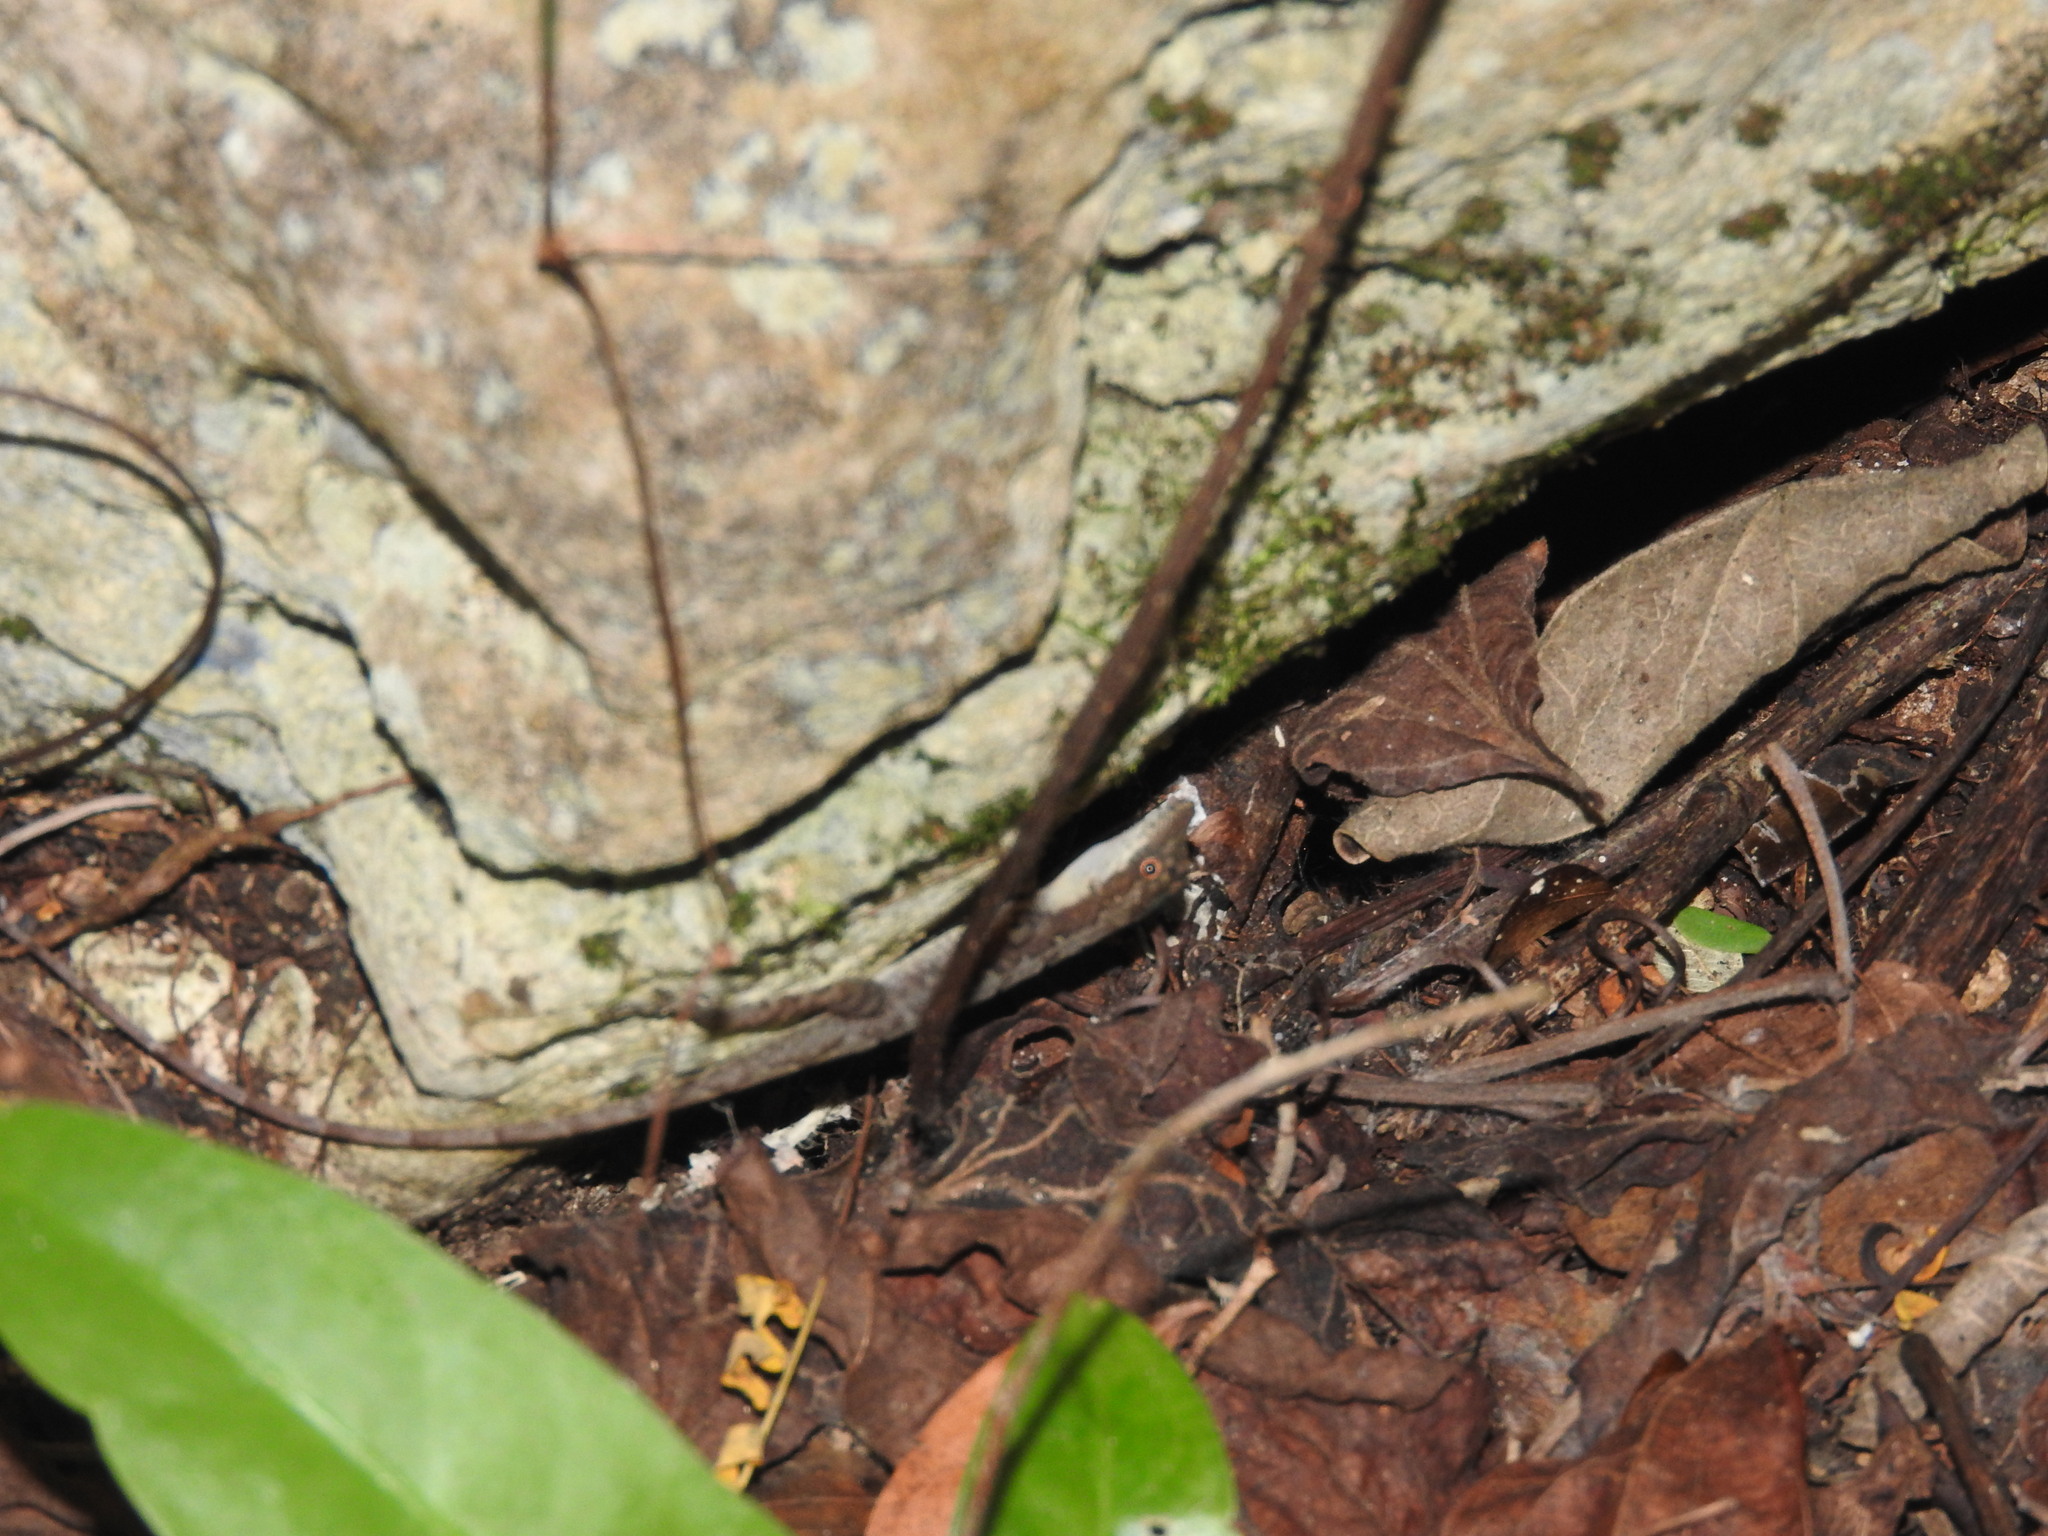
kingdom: Animalia
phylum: Chordata
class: Squamata
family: Dactyloidae
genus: Anolis
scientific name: Anolis rodriguezii
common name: Middle american smooth anole
